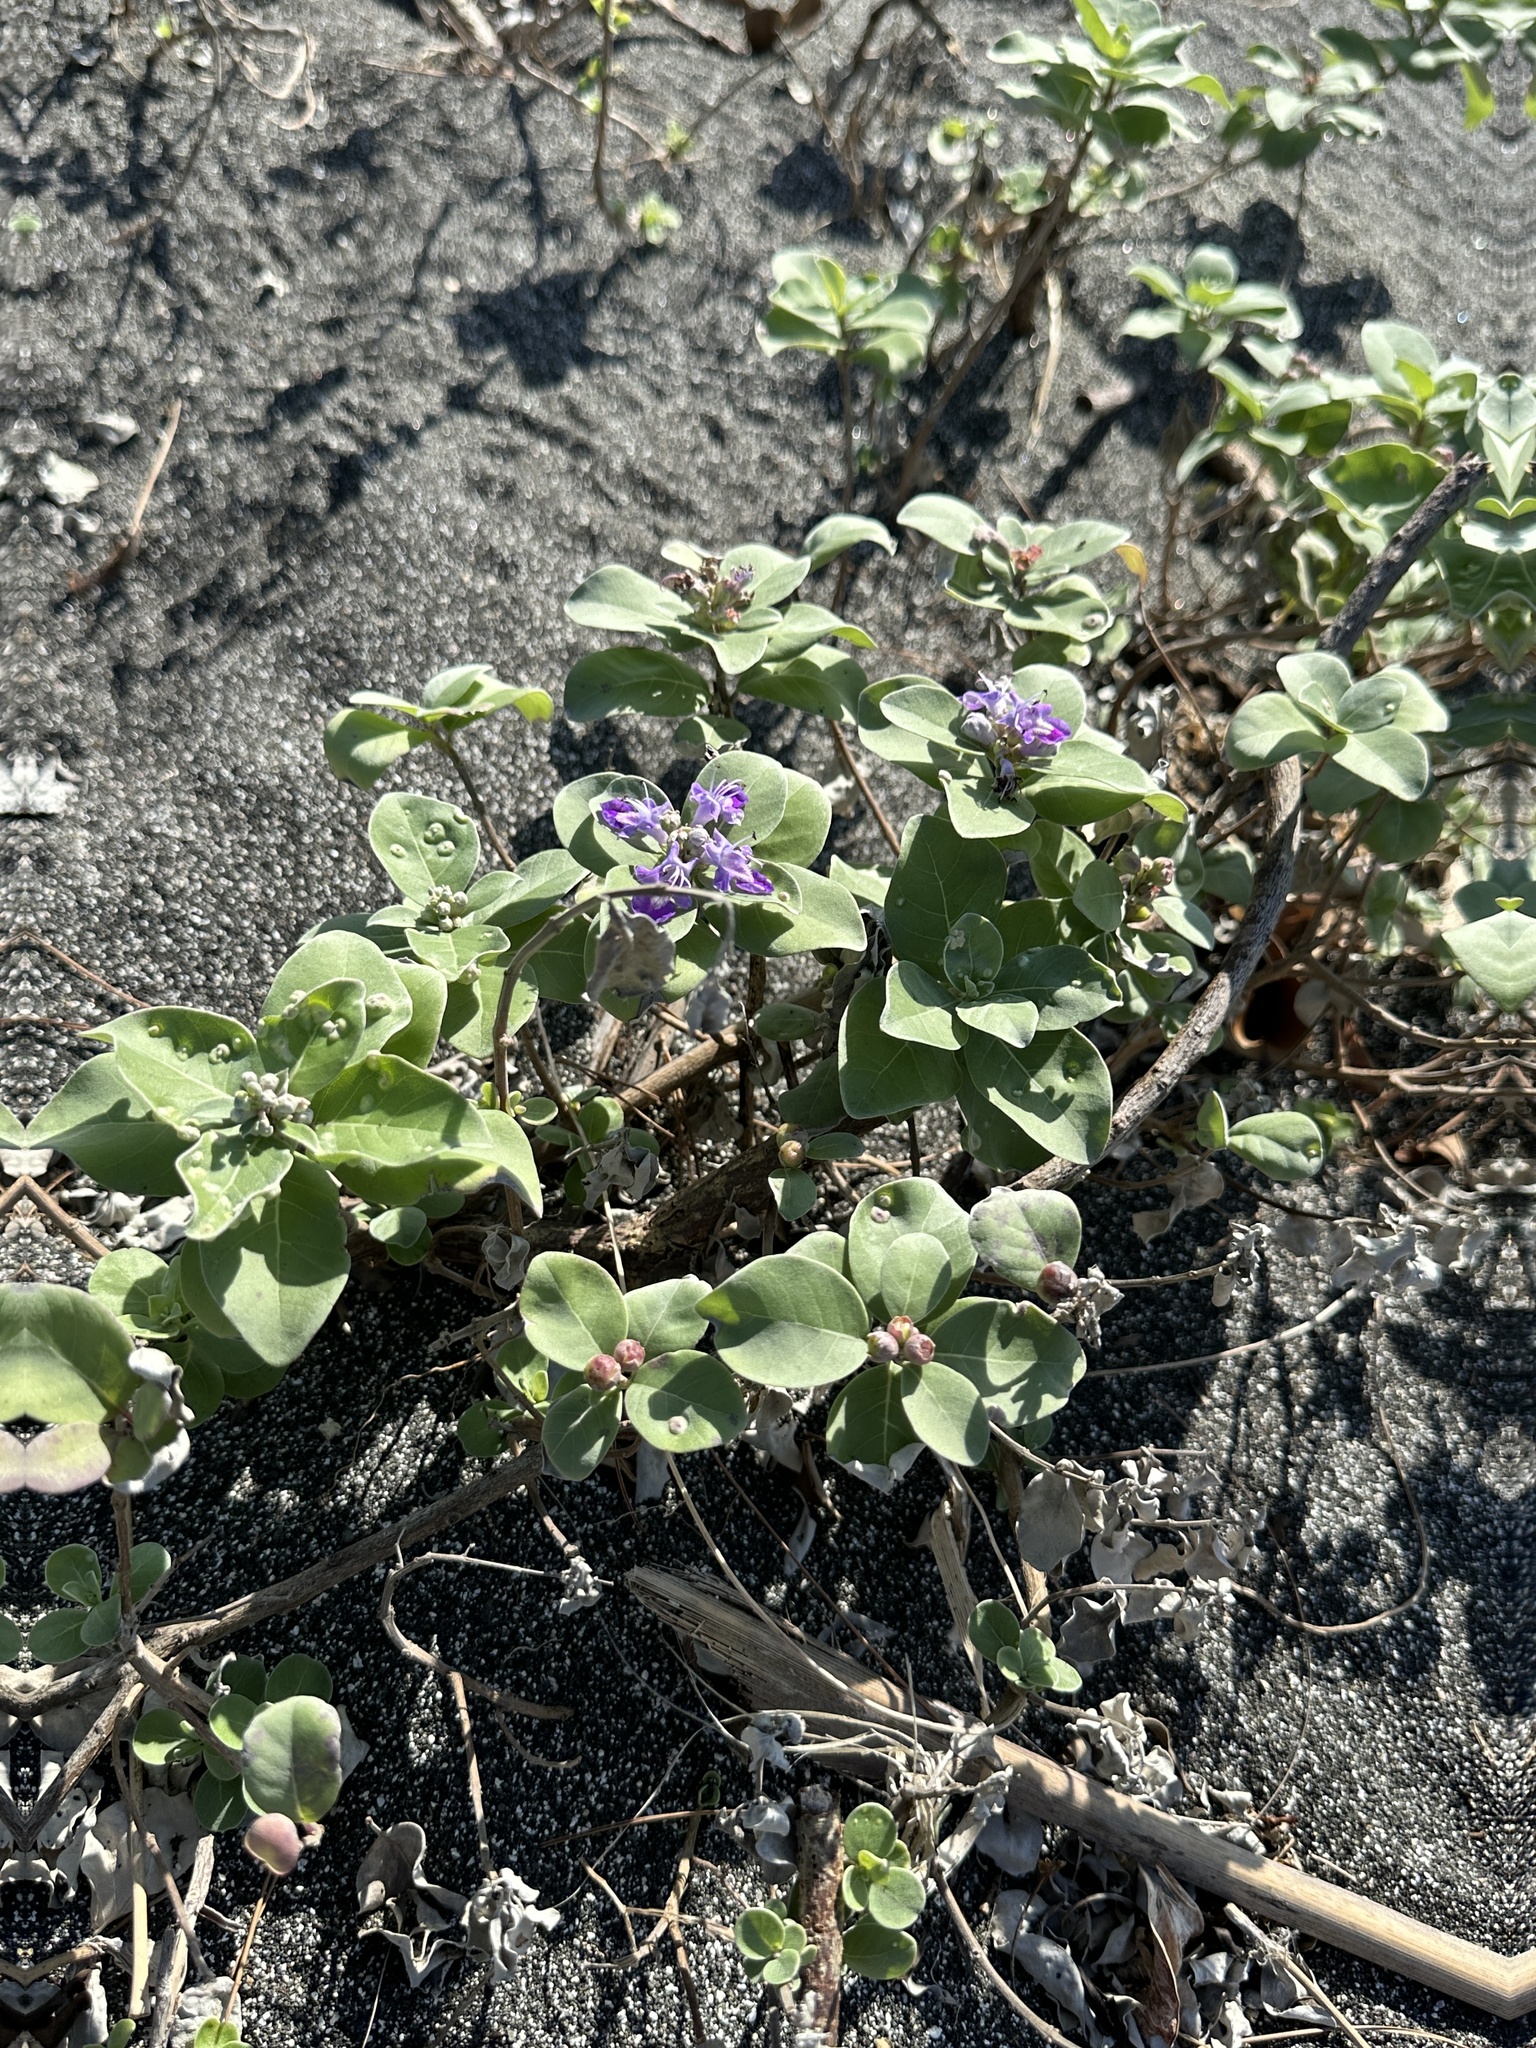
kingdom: Plantae
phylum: Tracheophyta
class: Magnoliopsida
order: Lamiales
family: Lamiaceae
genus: Vitex
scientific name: Vitex rotundifolia
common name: Beach vitex
